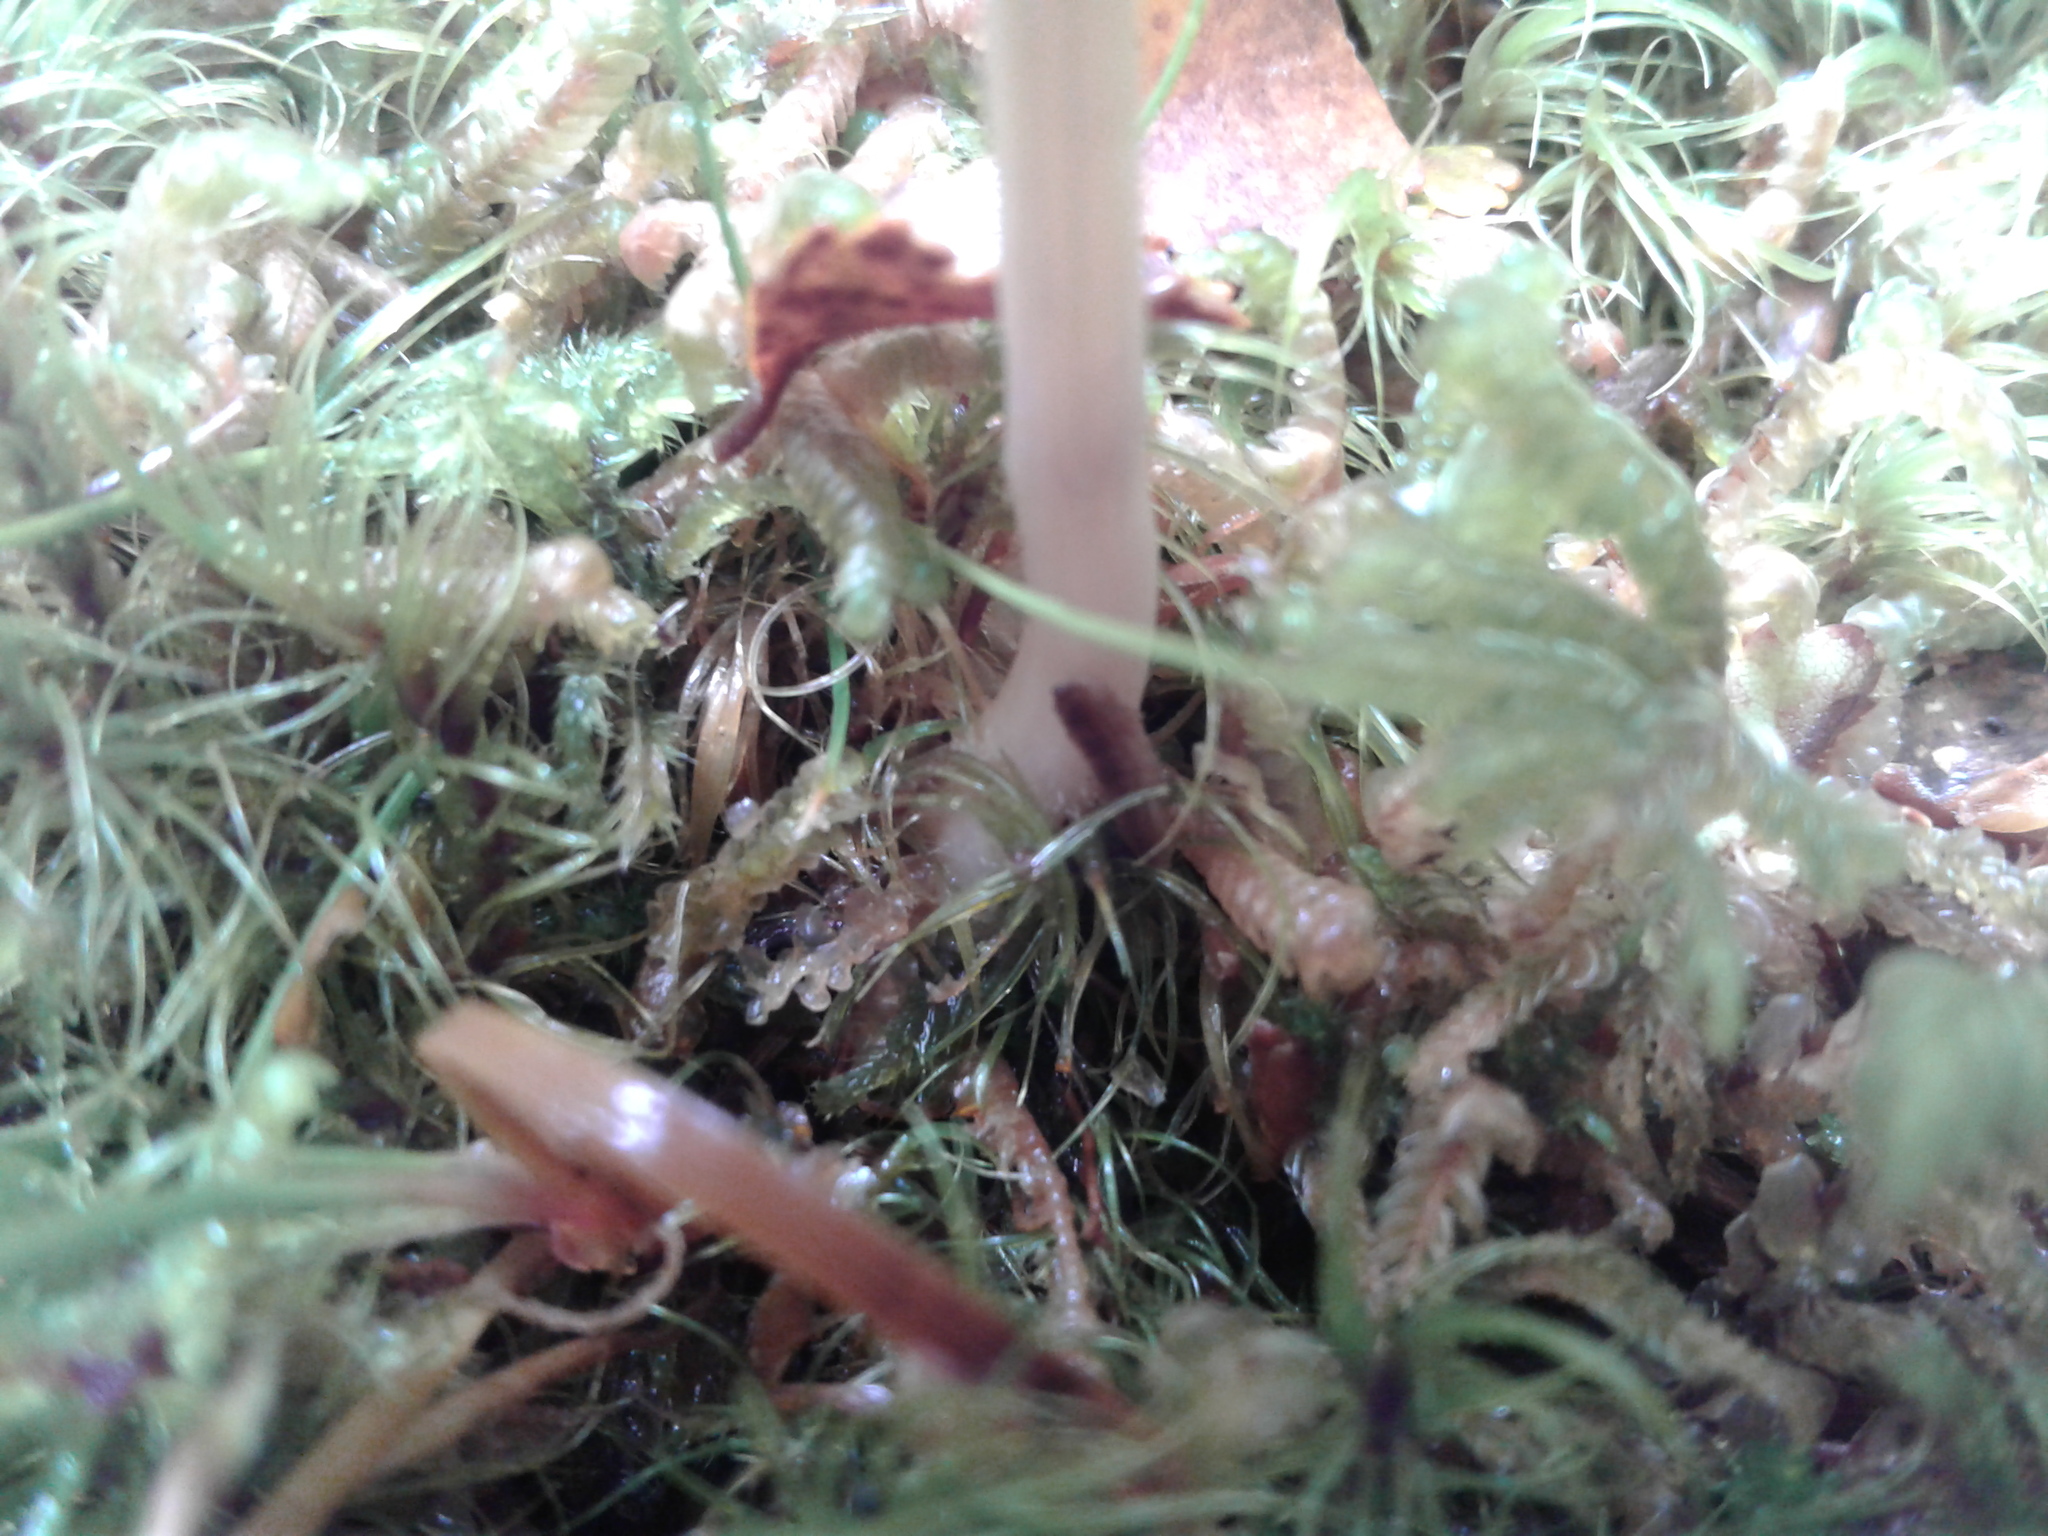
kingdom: Fungi
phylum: Basidiomycota
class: Agaricomycetes
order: Agaricales
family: Hydnangiaceae
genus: Laccaria
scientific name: Laccaria fibrillosa
